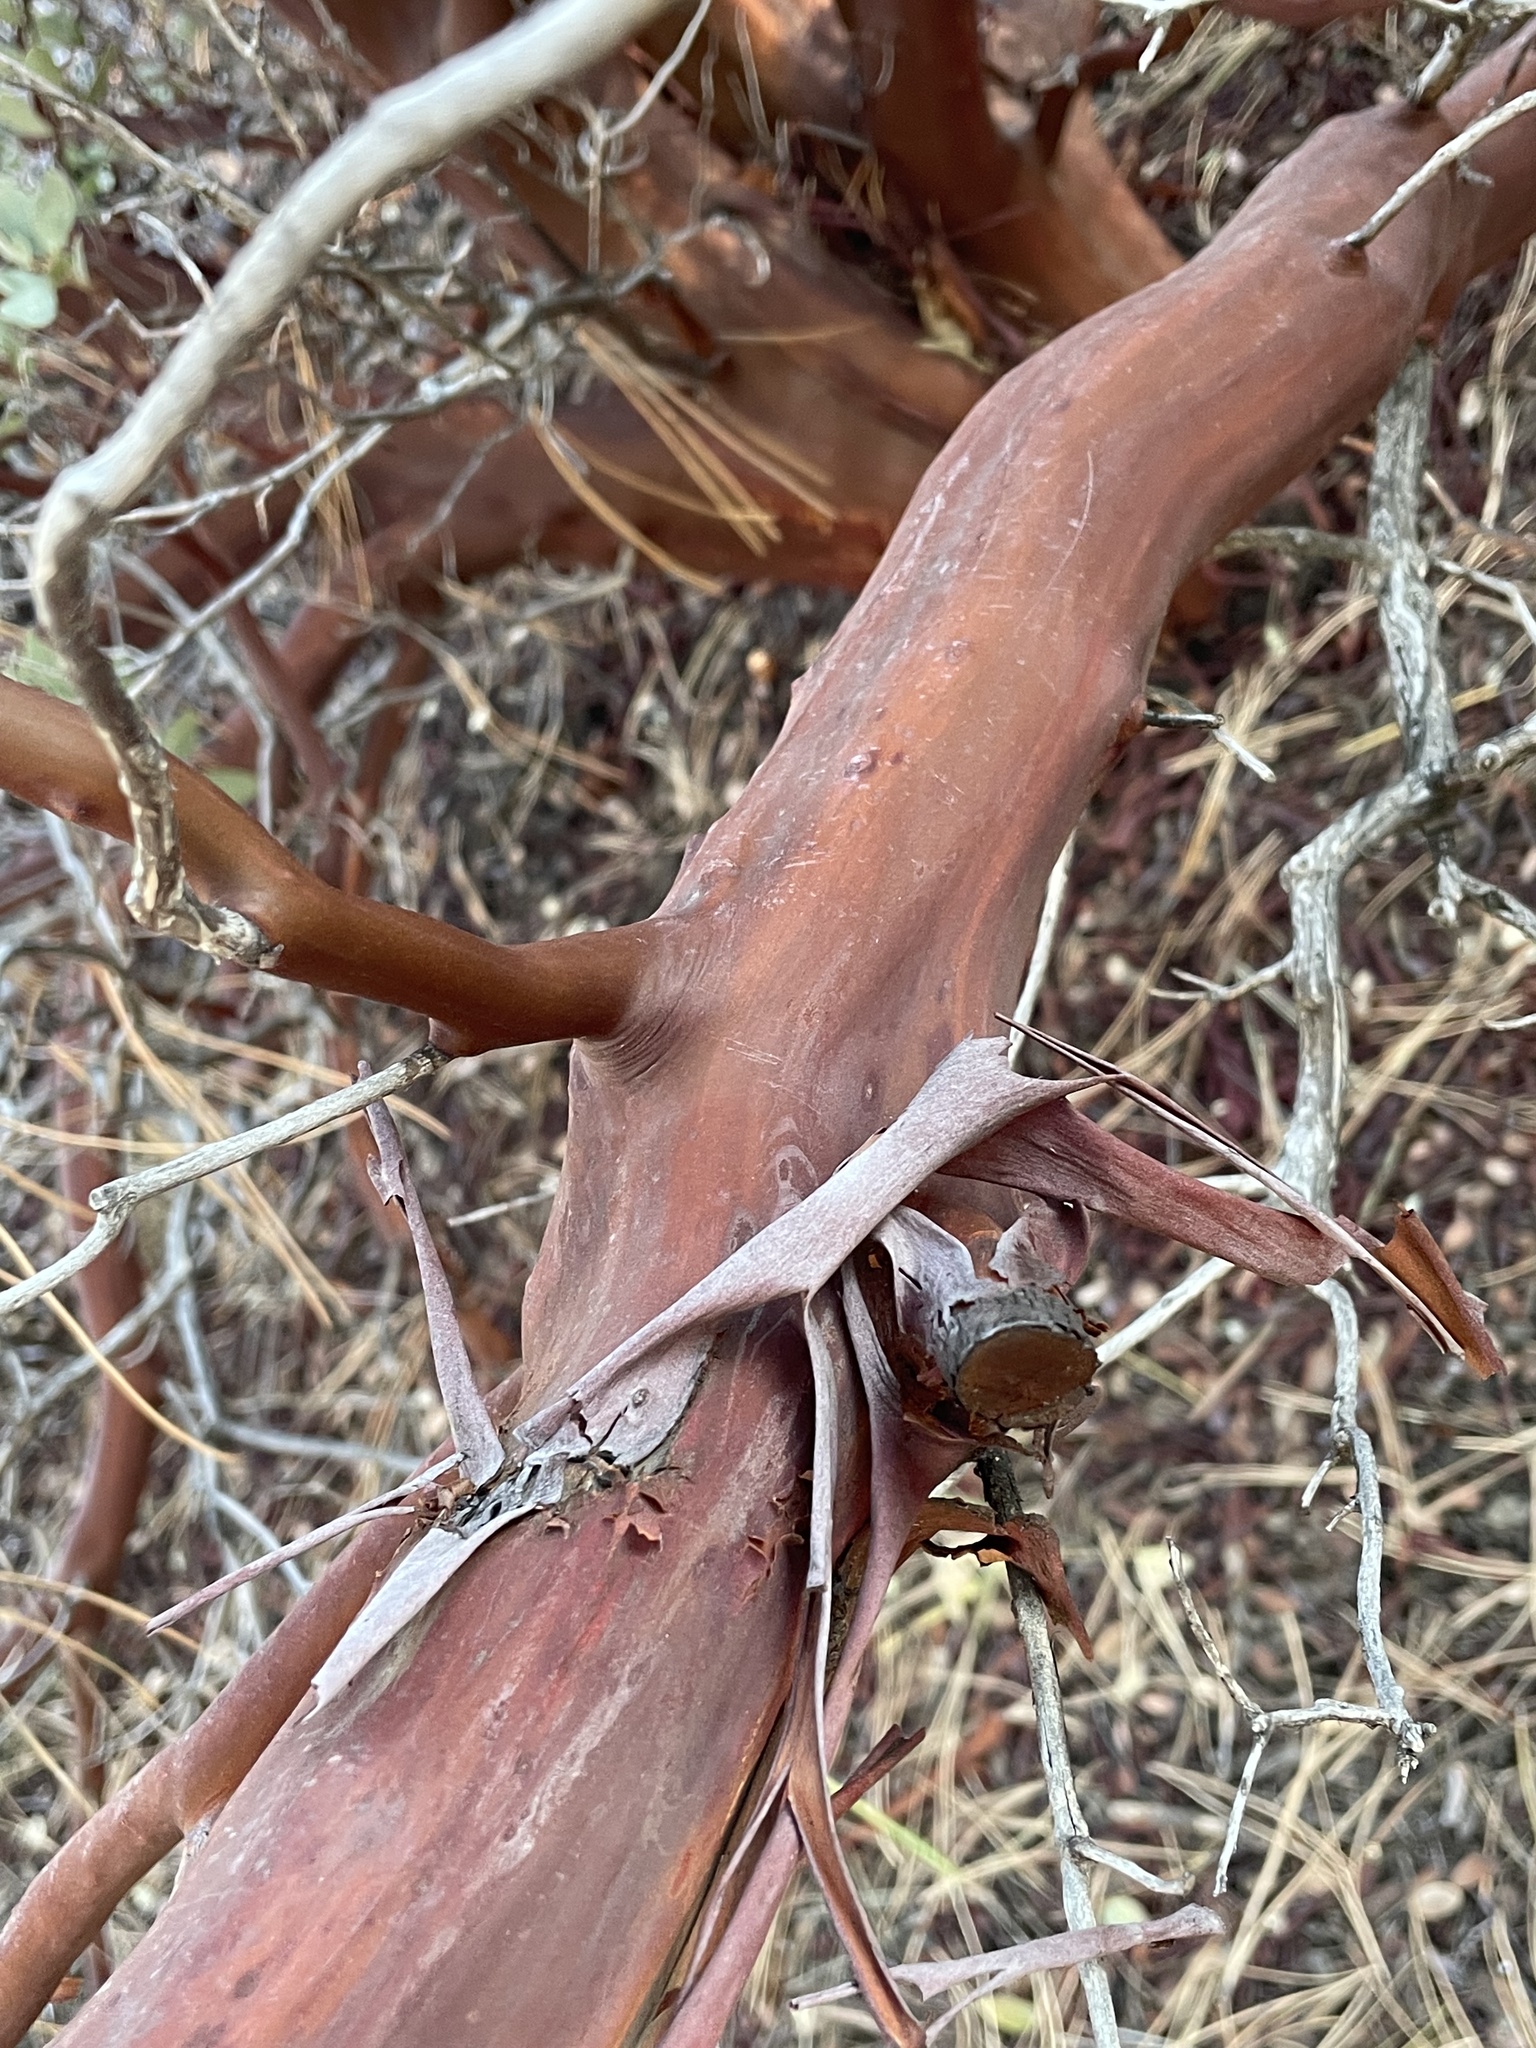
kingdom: Plantae
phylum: Tracheophyta
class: Magnoliopsida
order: Ericales
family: Ericaceae
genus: Arctostaphylos
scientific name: Arctostaphylos pringlei
